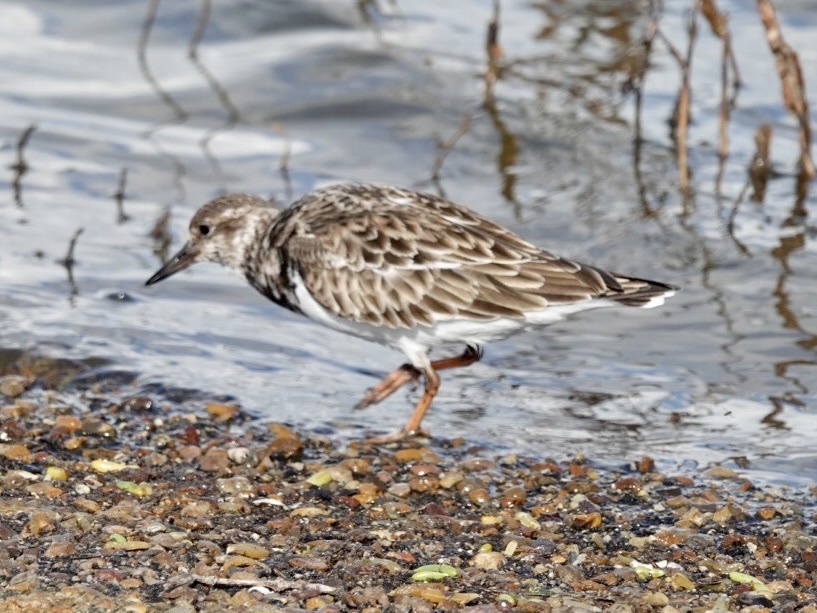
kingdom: Animalia
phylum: Chordata
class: Aves
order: Charadriiformes
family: Scolopacidae
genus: Arenaria
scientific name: Arenaria interpres
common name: Ruddy turnstone
